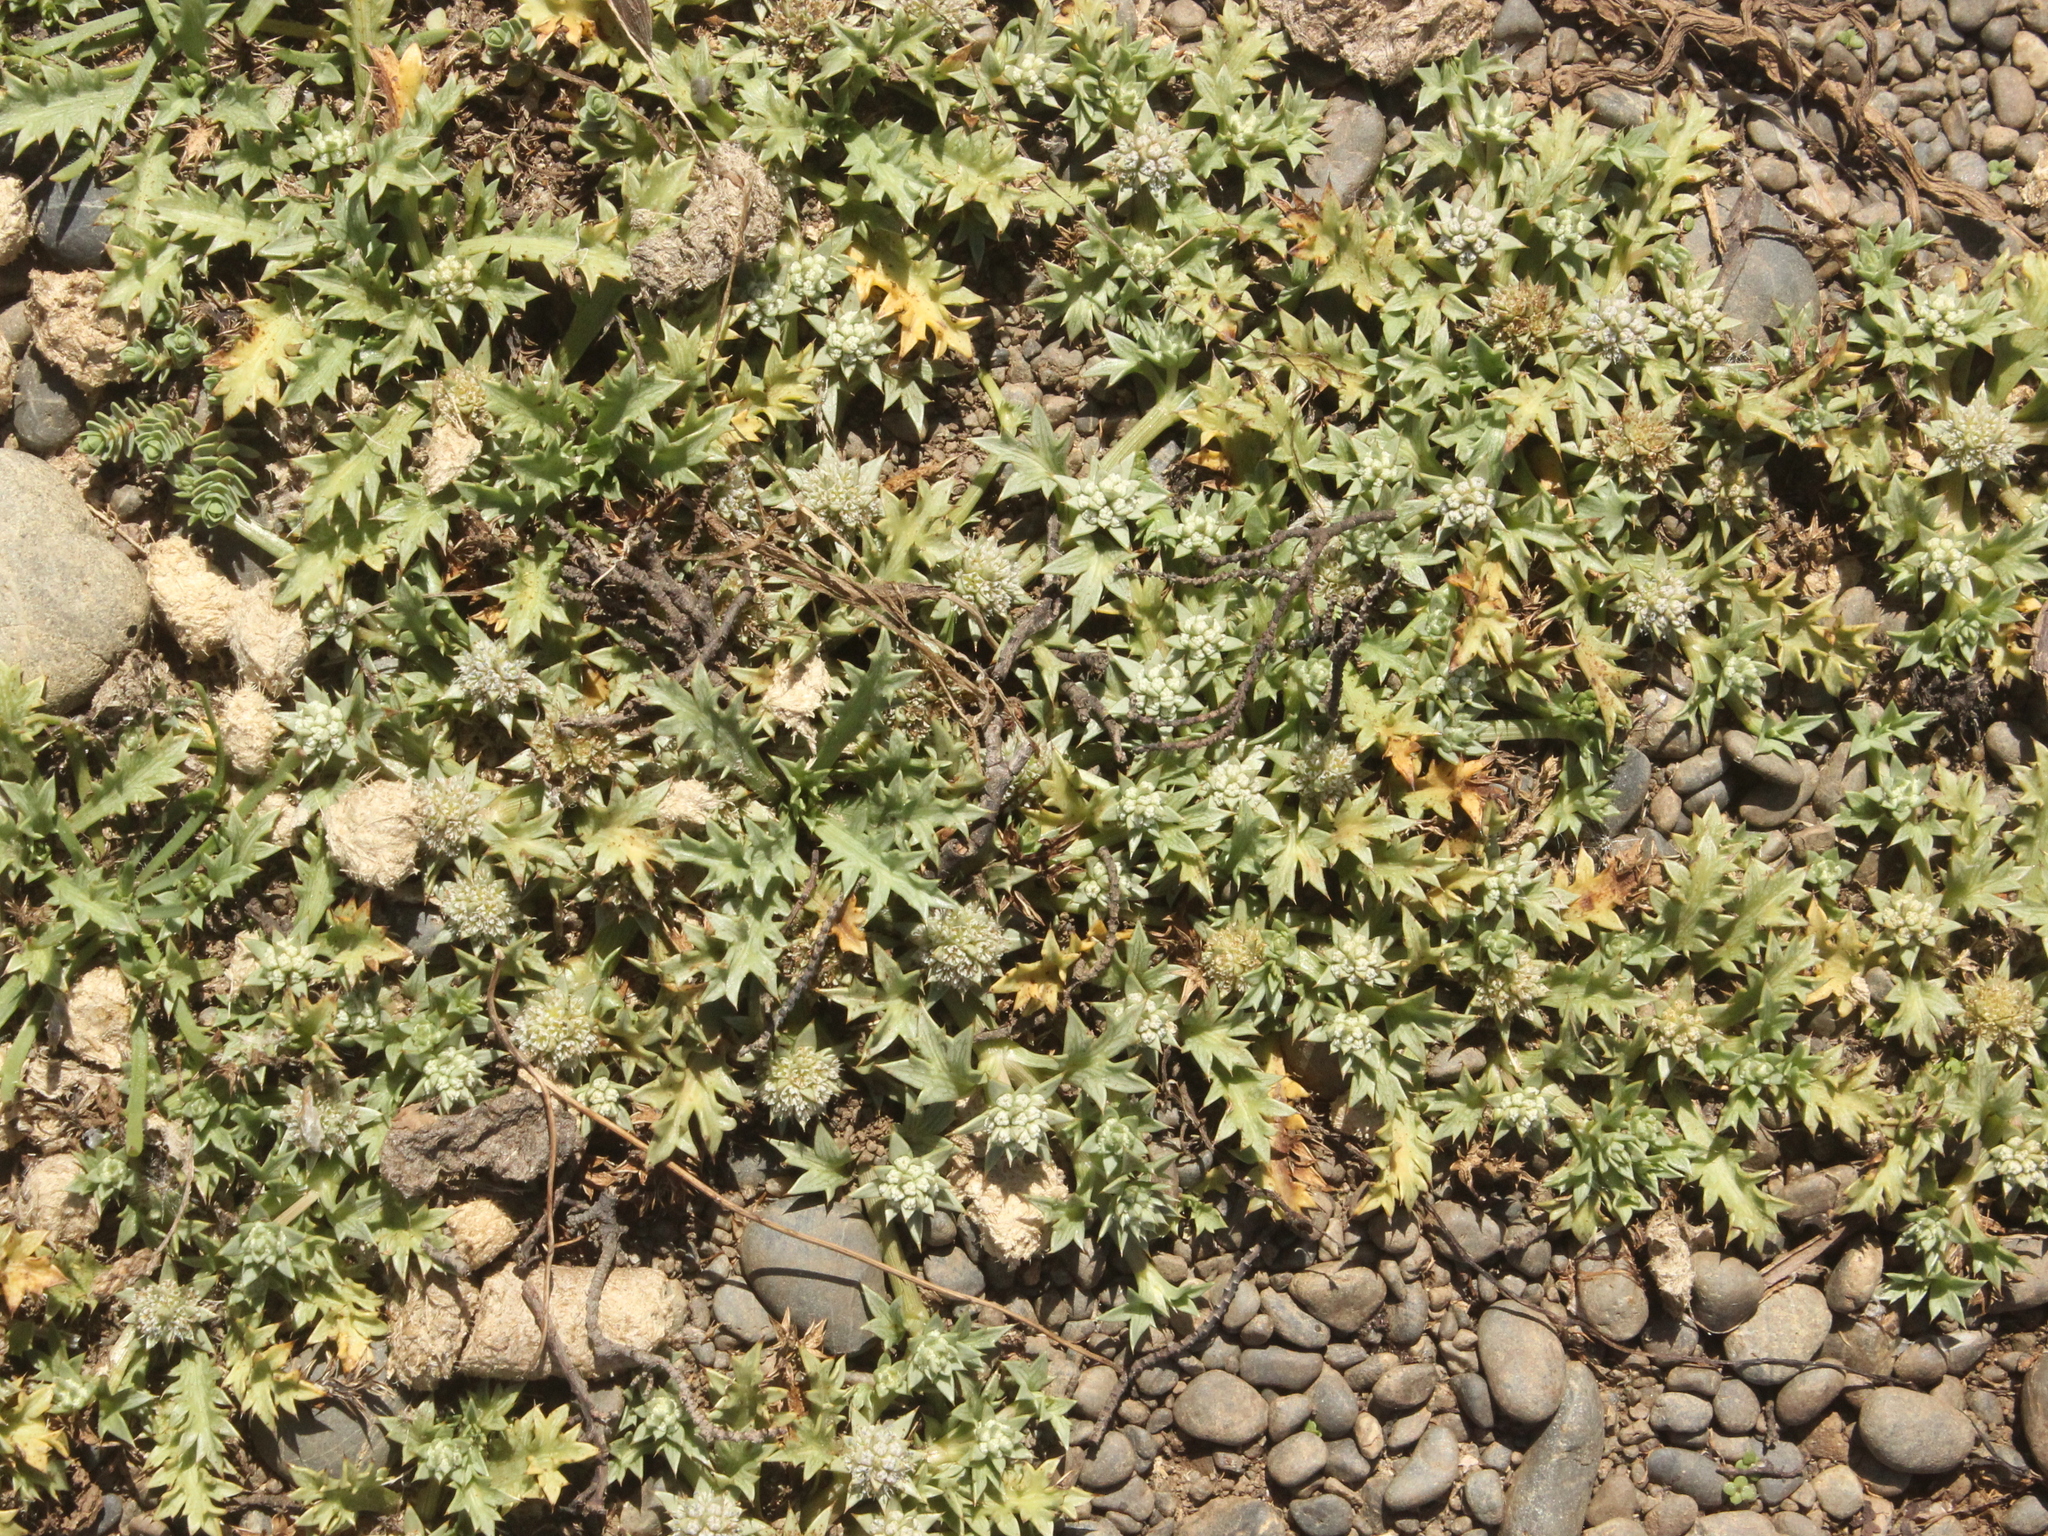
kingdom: Plantae
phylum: Tracheophyta
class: Magnoliopsida
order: Apiales
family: Apiaceae
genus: Eryngium
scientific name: Eryngium vesiculosum
